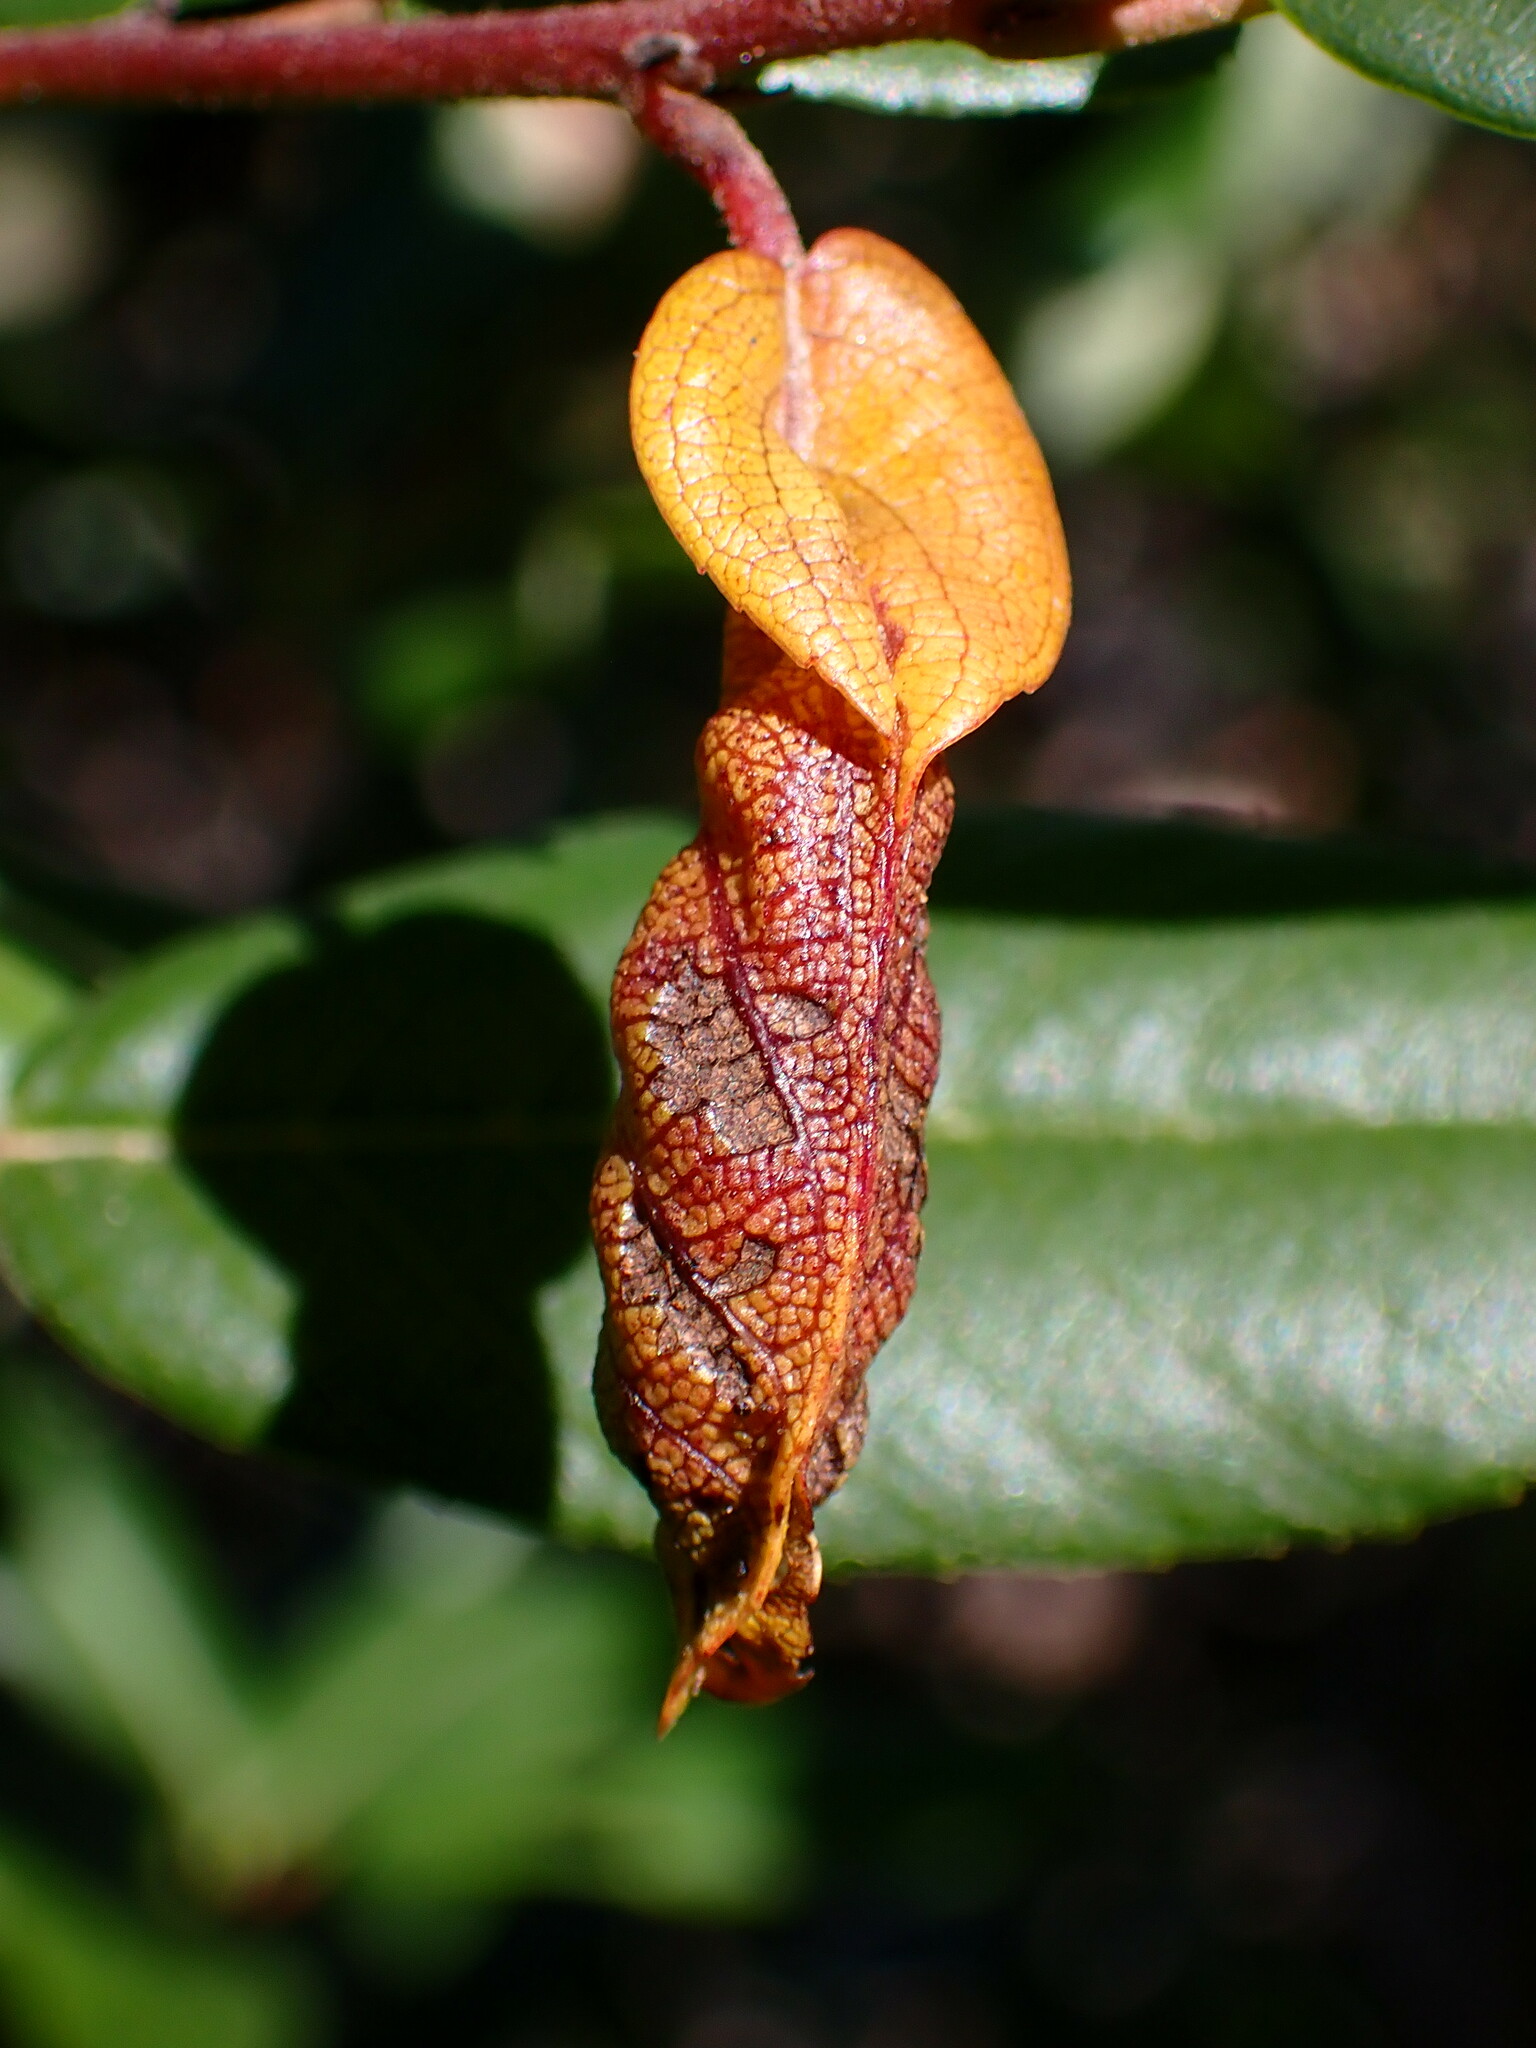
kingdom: Animalia
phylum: Arthropoda
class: Insecta
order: Lepidoptera
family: Cosmopterigidae
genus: Sorhagenia
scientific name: Sorhagenia nimbosus
